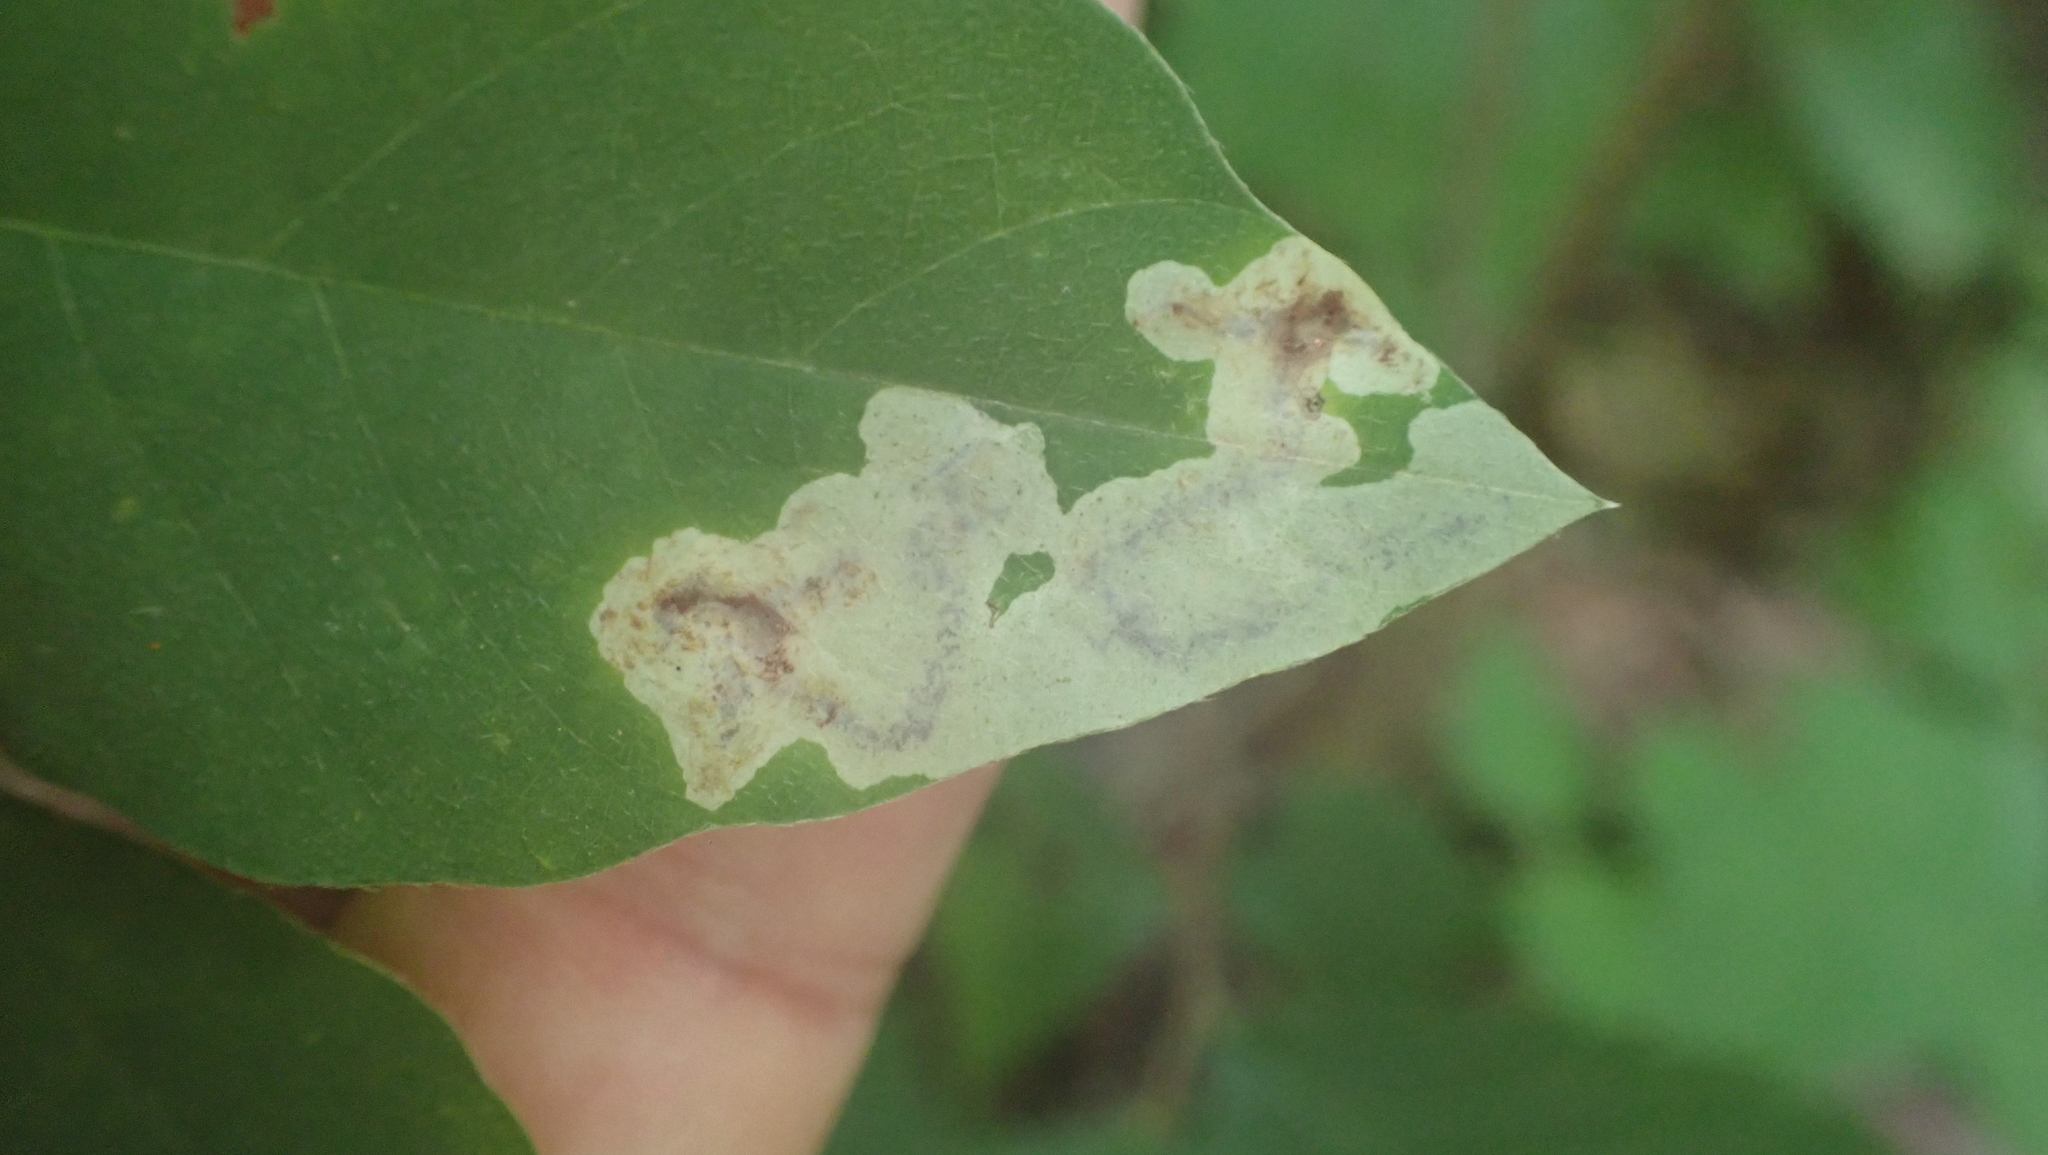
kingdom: Animalia
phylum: Arthropoda
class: Insecta
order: Lepidoptera
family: Gracillariidae
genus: Leucanthiza
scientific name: Leucanthiza amphicarpeaefoliella
